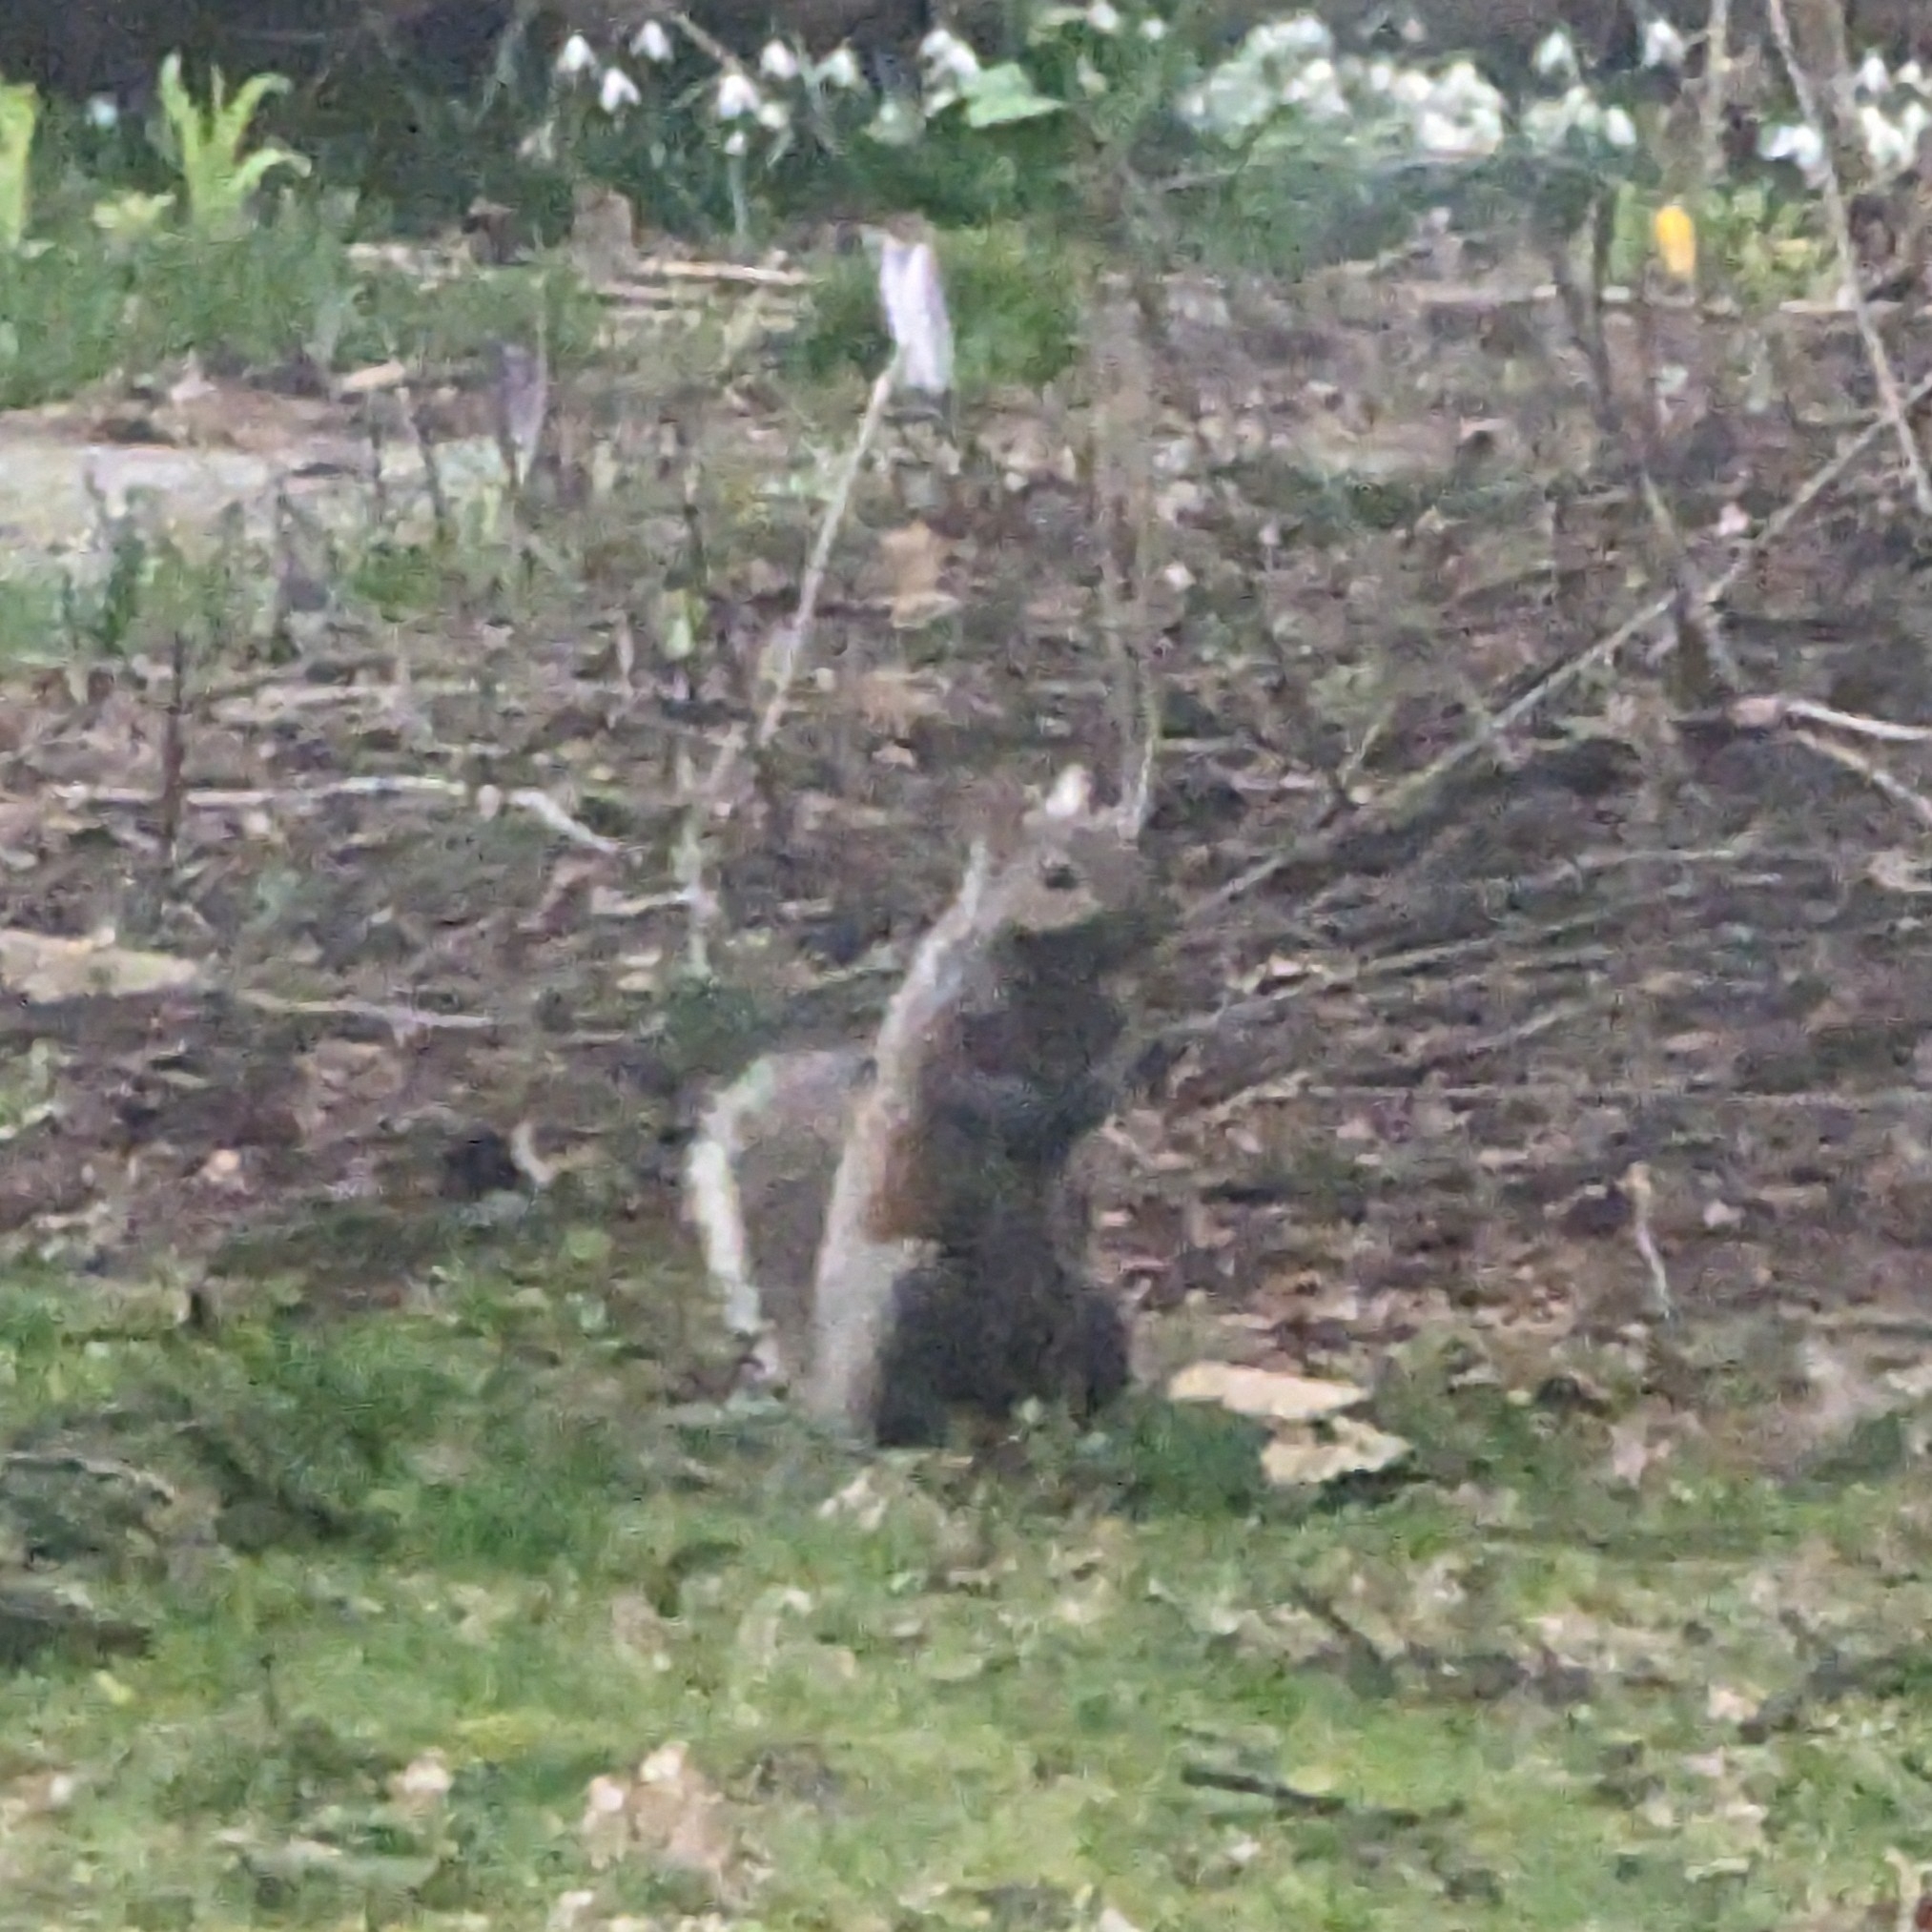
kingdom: Animalia
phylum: Chordata
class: Mammalia
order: Rodentia
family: Sciuridae
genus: Sciurus
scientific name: Sciurus carolinensis
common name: Eastern gray squirrel
